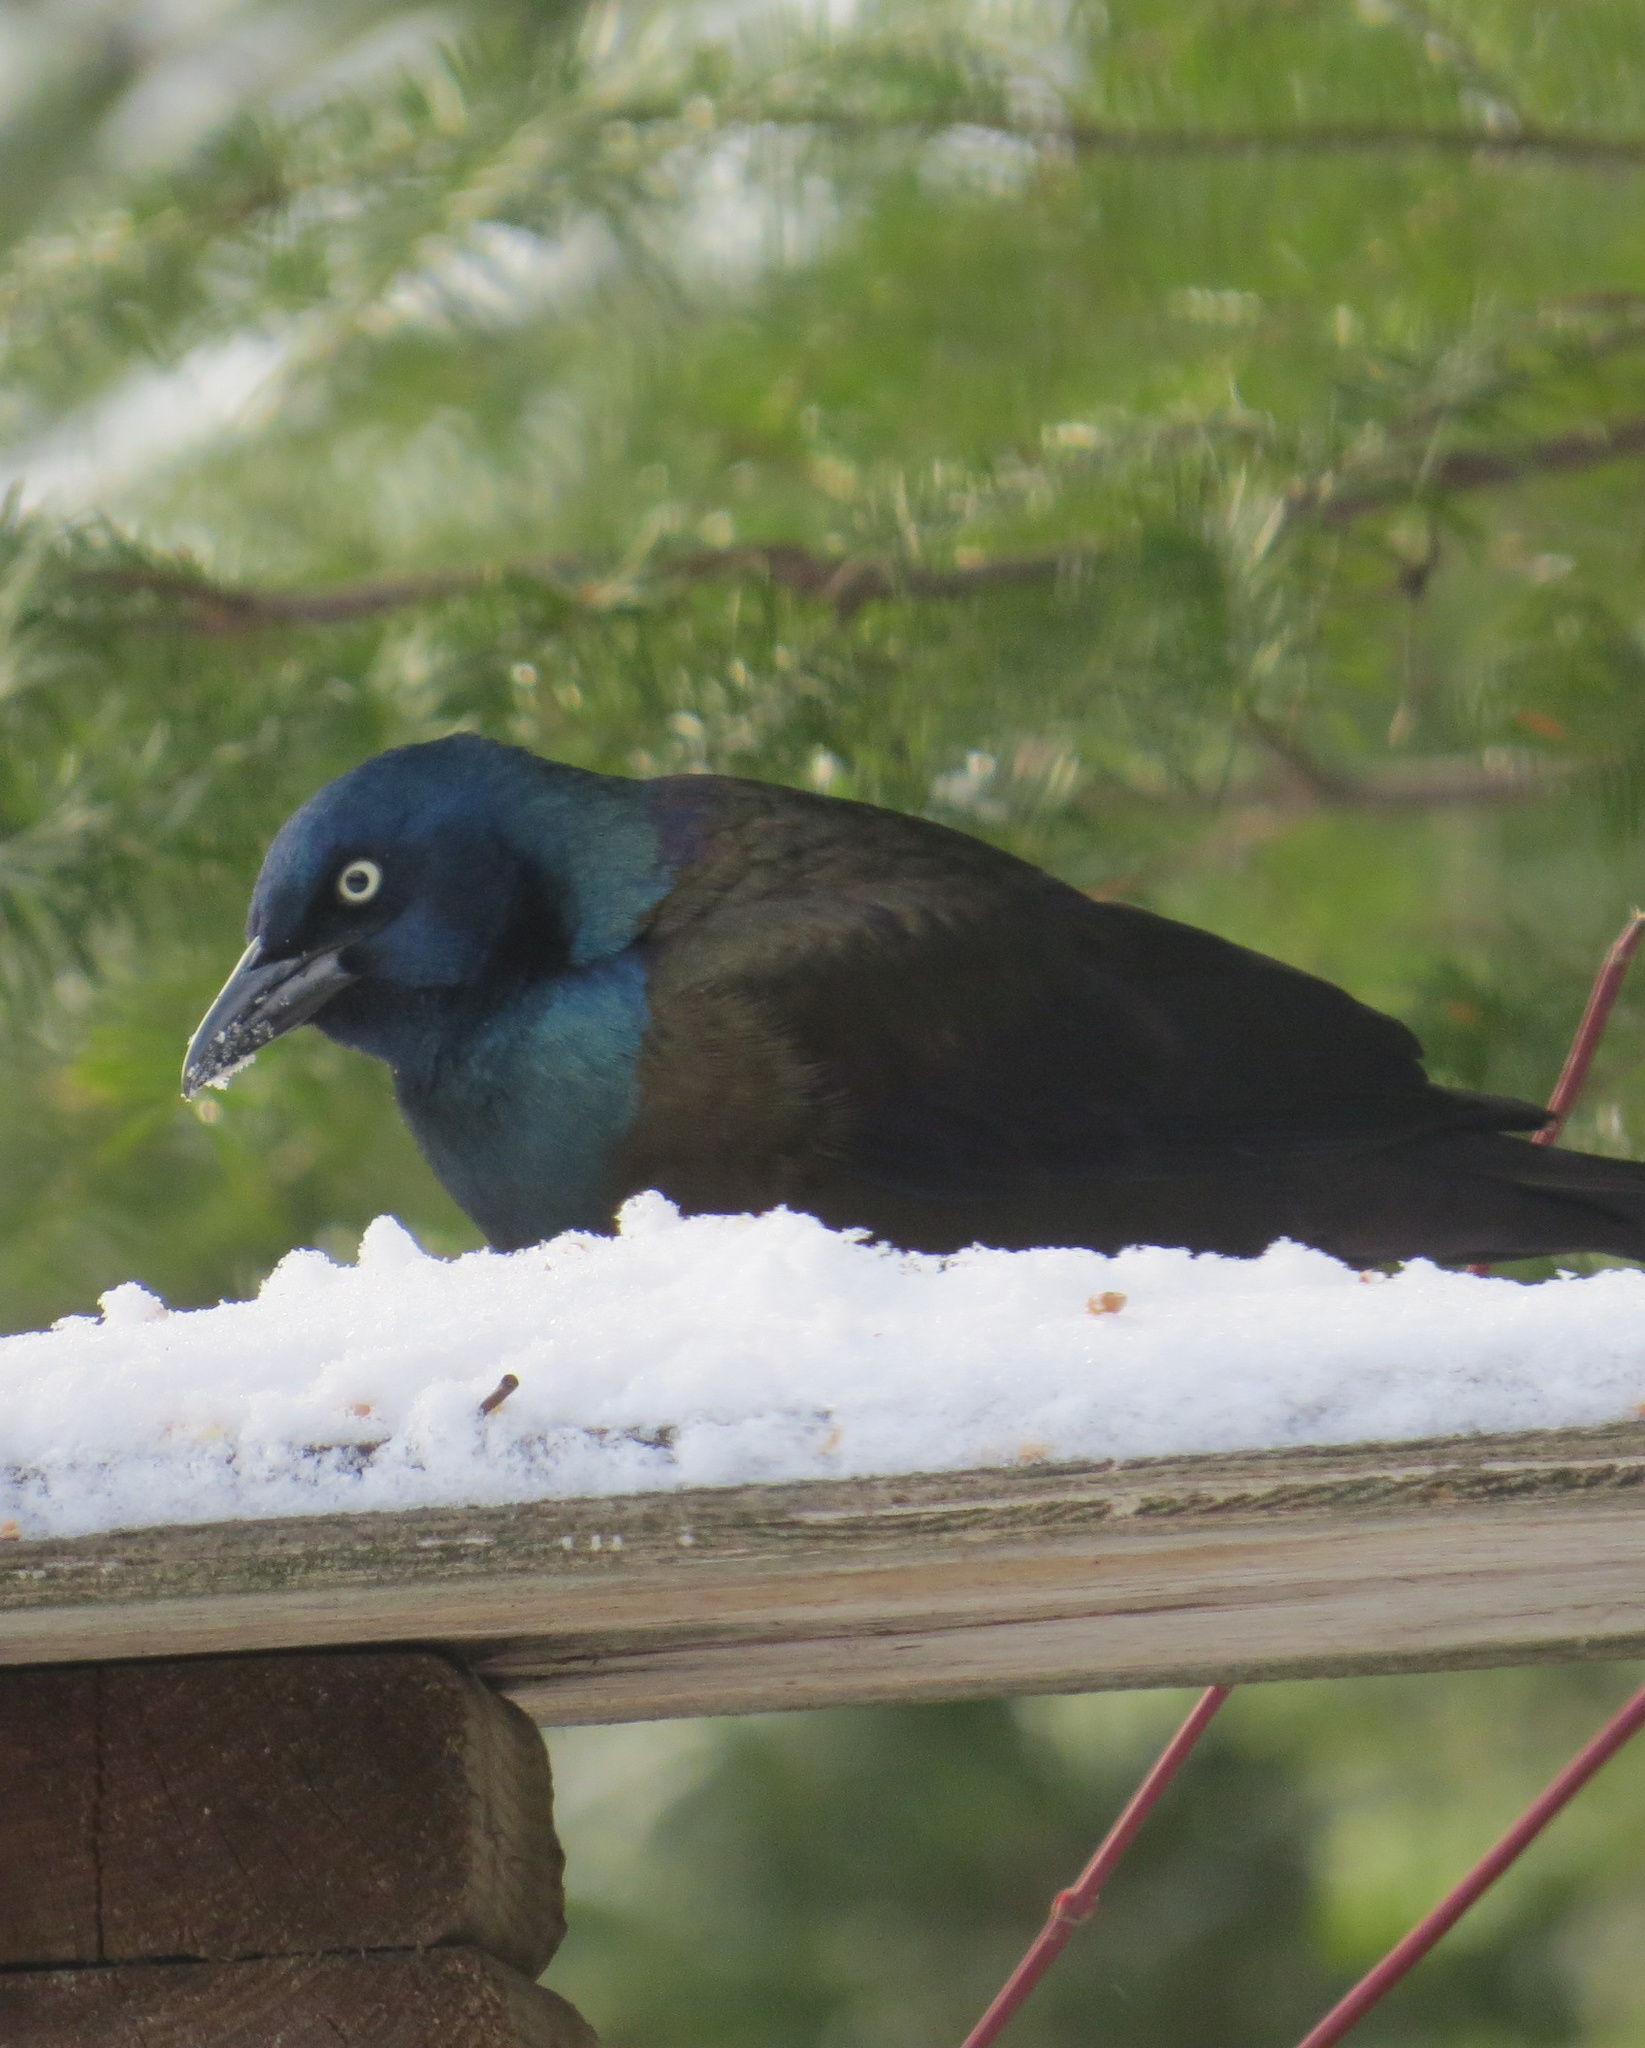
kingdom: Animalia
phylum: Chordata
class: Aves
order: Passeriformes
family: Icteridae
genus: Quiscalus
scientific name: Quiscalus quiscula
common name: Common grackle
